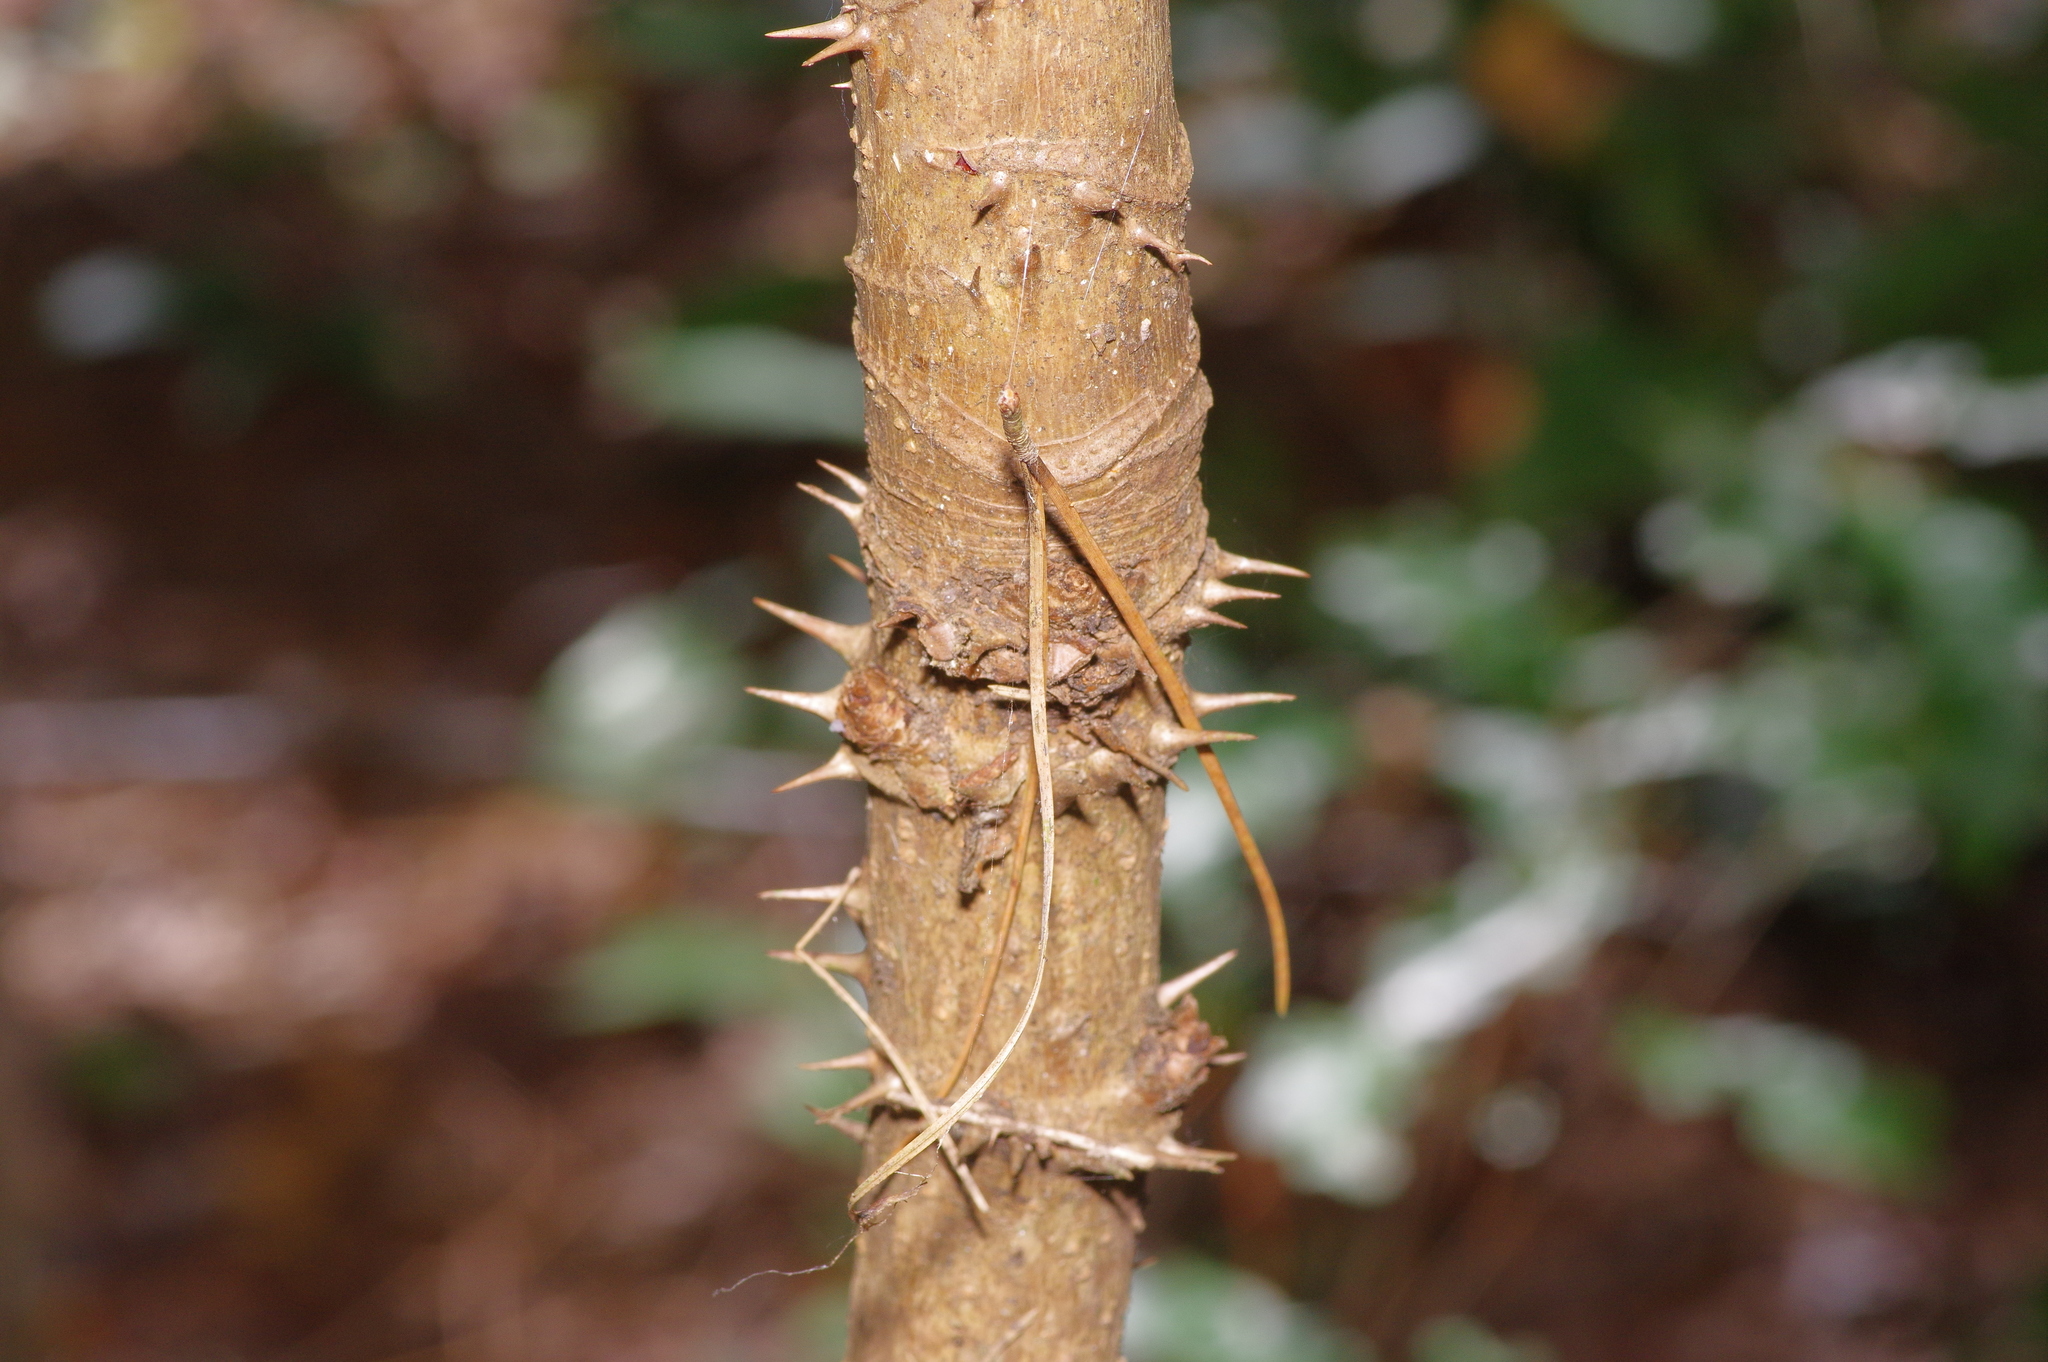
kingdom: Plantae
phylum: Tracheophyta
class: Magnoliopsida
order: Apiales
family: Araliaceae
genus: Aralia
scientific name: Aralia spinosa
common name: Hercules'-club
